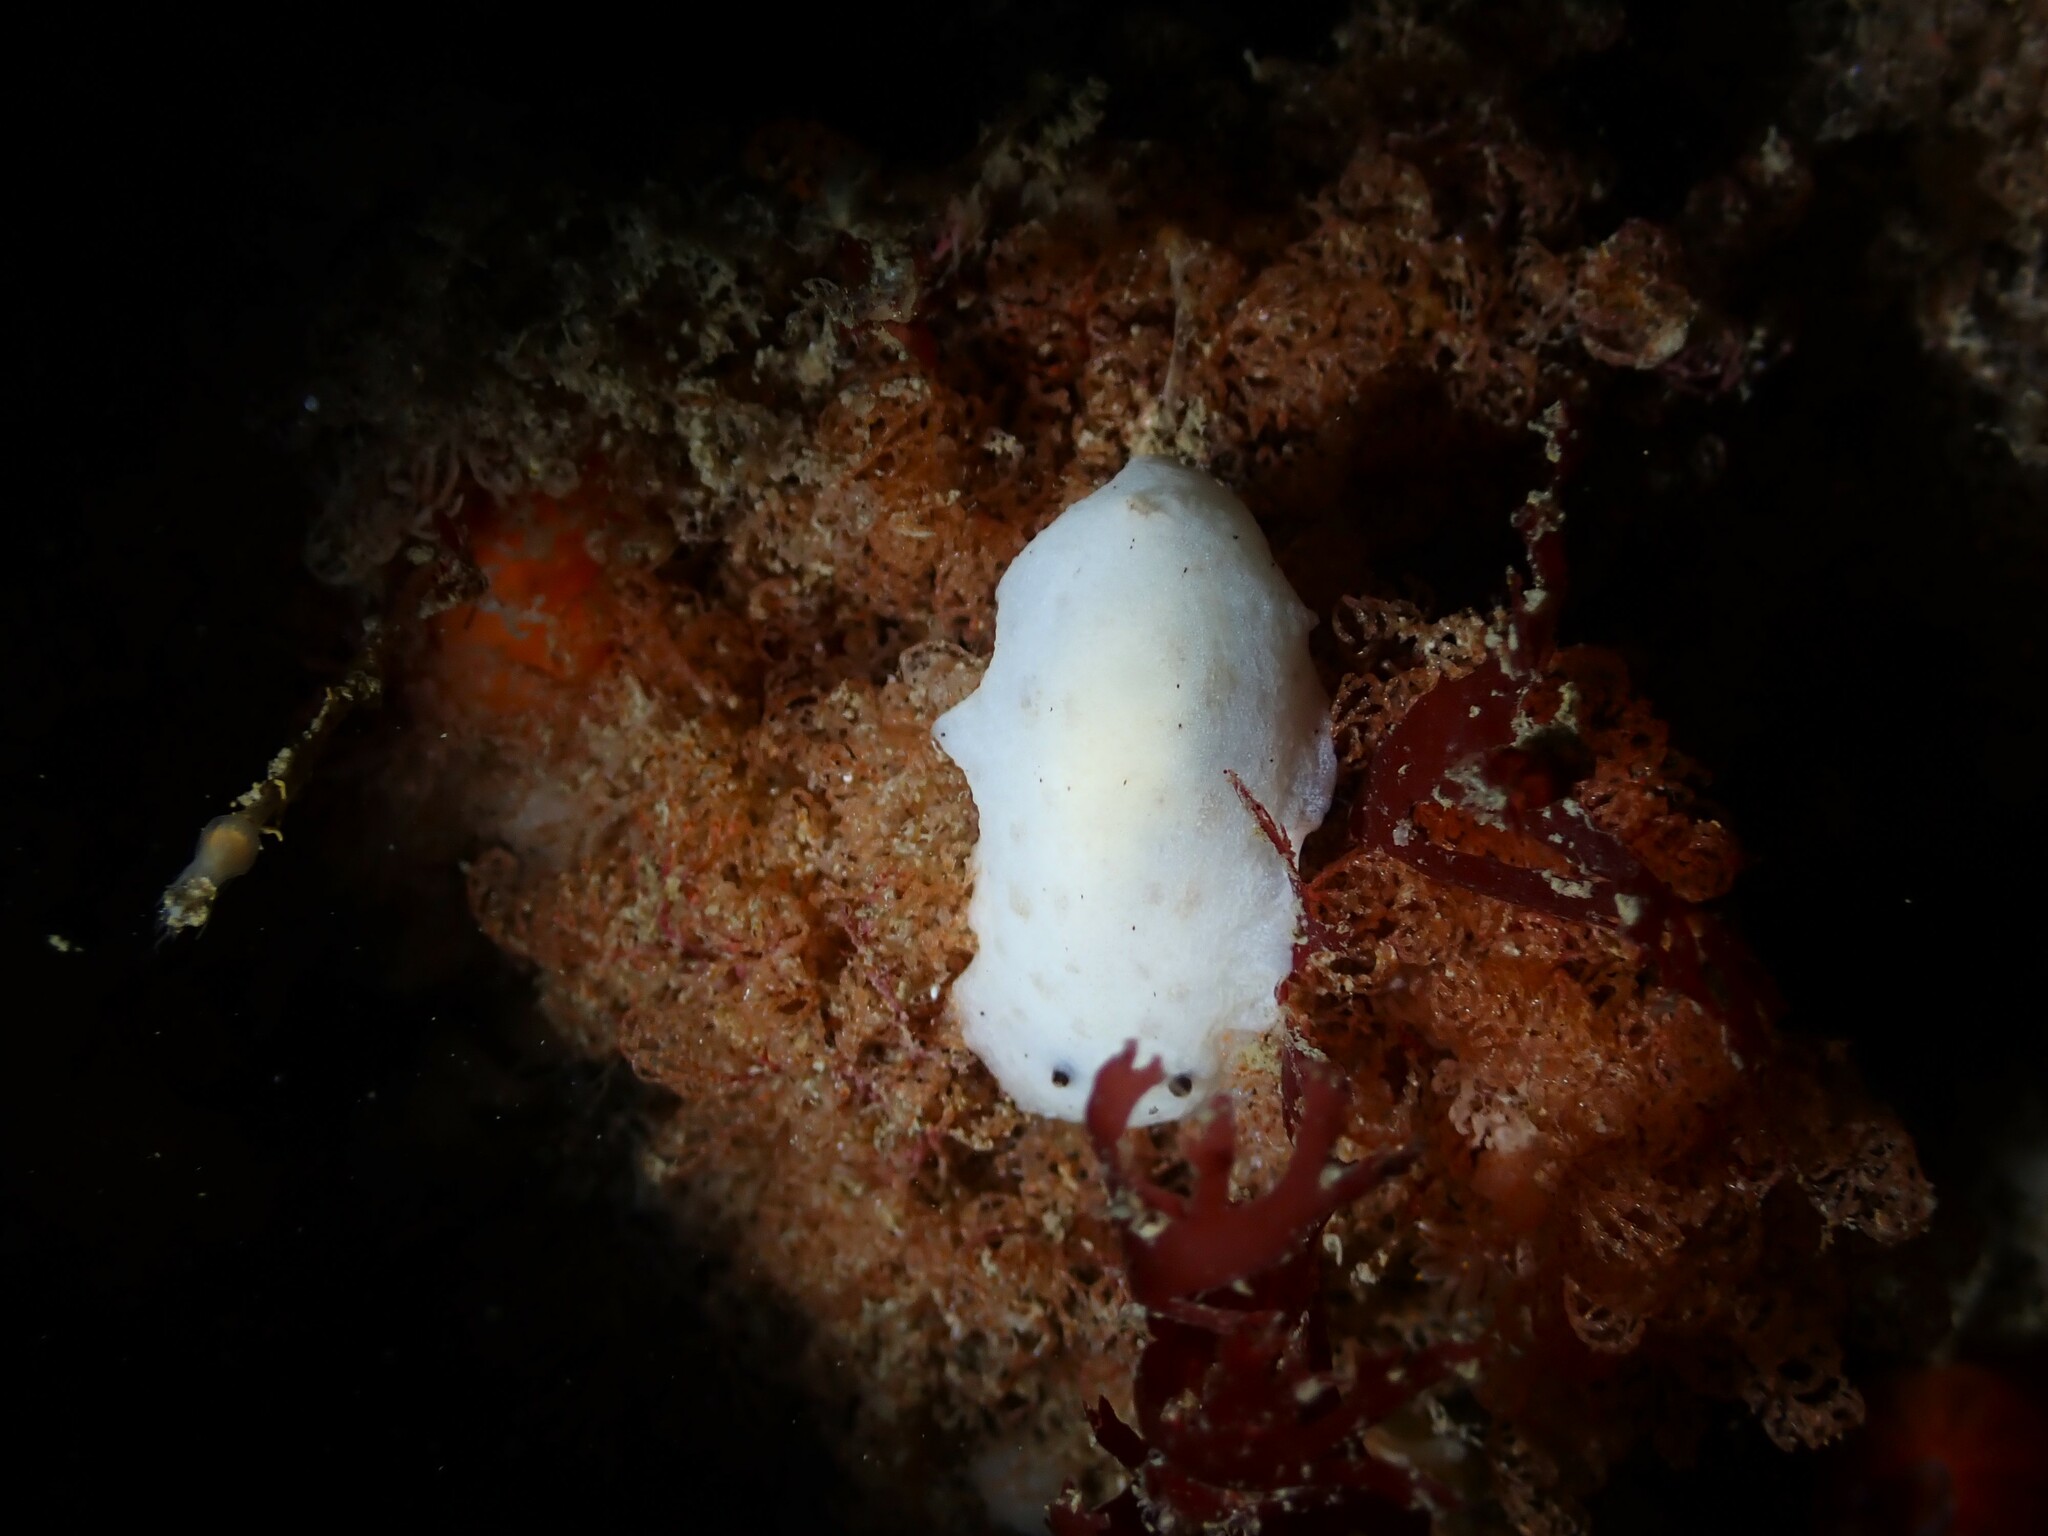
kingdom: Animalia
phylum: Mollusca
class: Gastropoda
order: Nudibranchia
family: Discodorididae
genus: Paradoris
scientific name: Paradoris dubia
